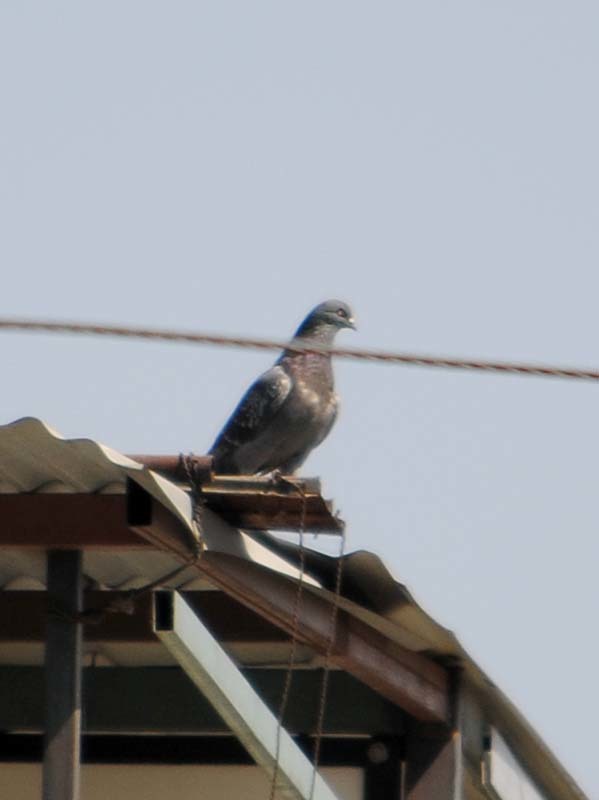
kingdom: Animalia
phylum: Chordata
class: Aves
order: Columbiformes
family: Columbidae
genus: Columba
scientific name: Columba livia
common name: Rock pigeon
